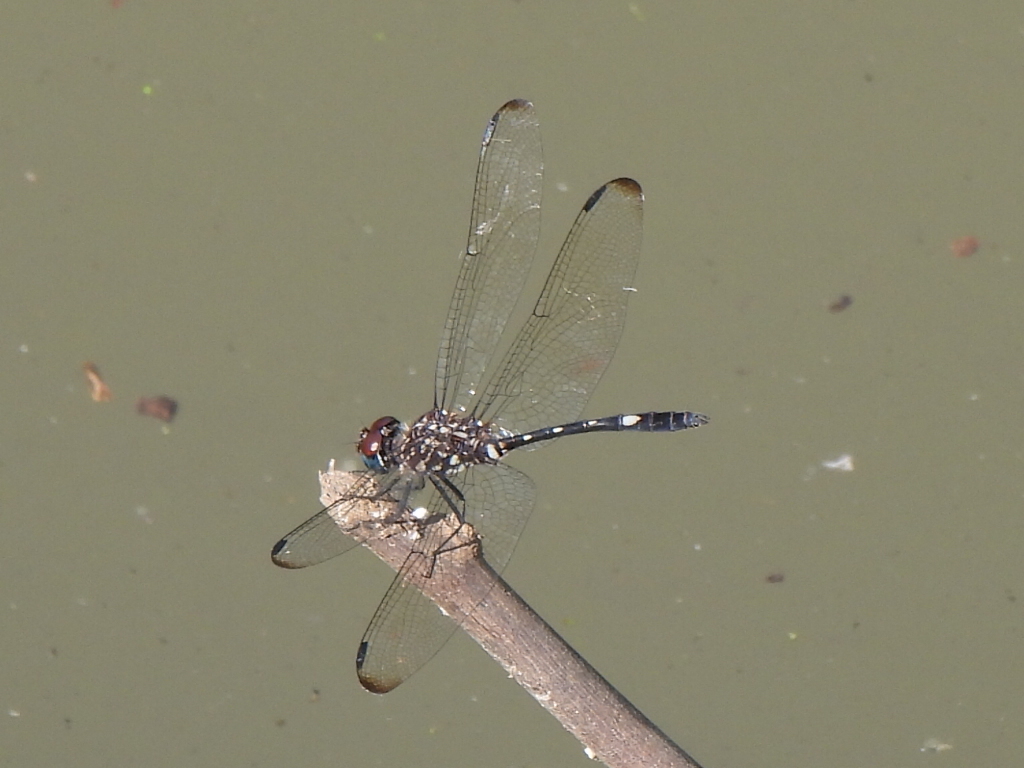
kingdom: Animalia
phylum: Arthropoda
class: Insecta
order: Odonata
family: Libellulidae
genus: Dythemis
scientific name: Dythemis velox
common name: Swift setwing
